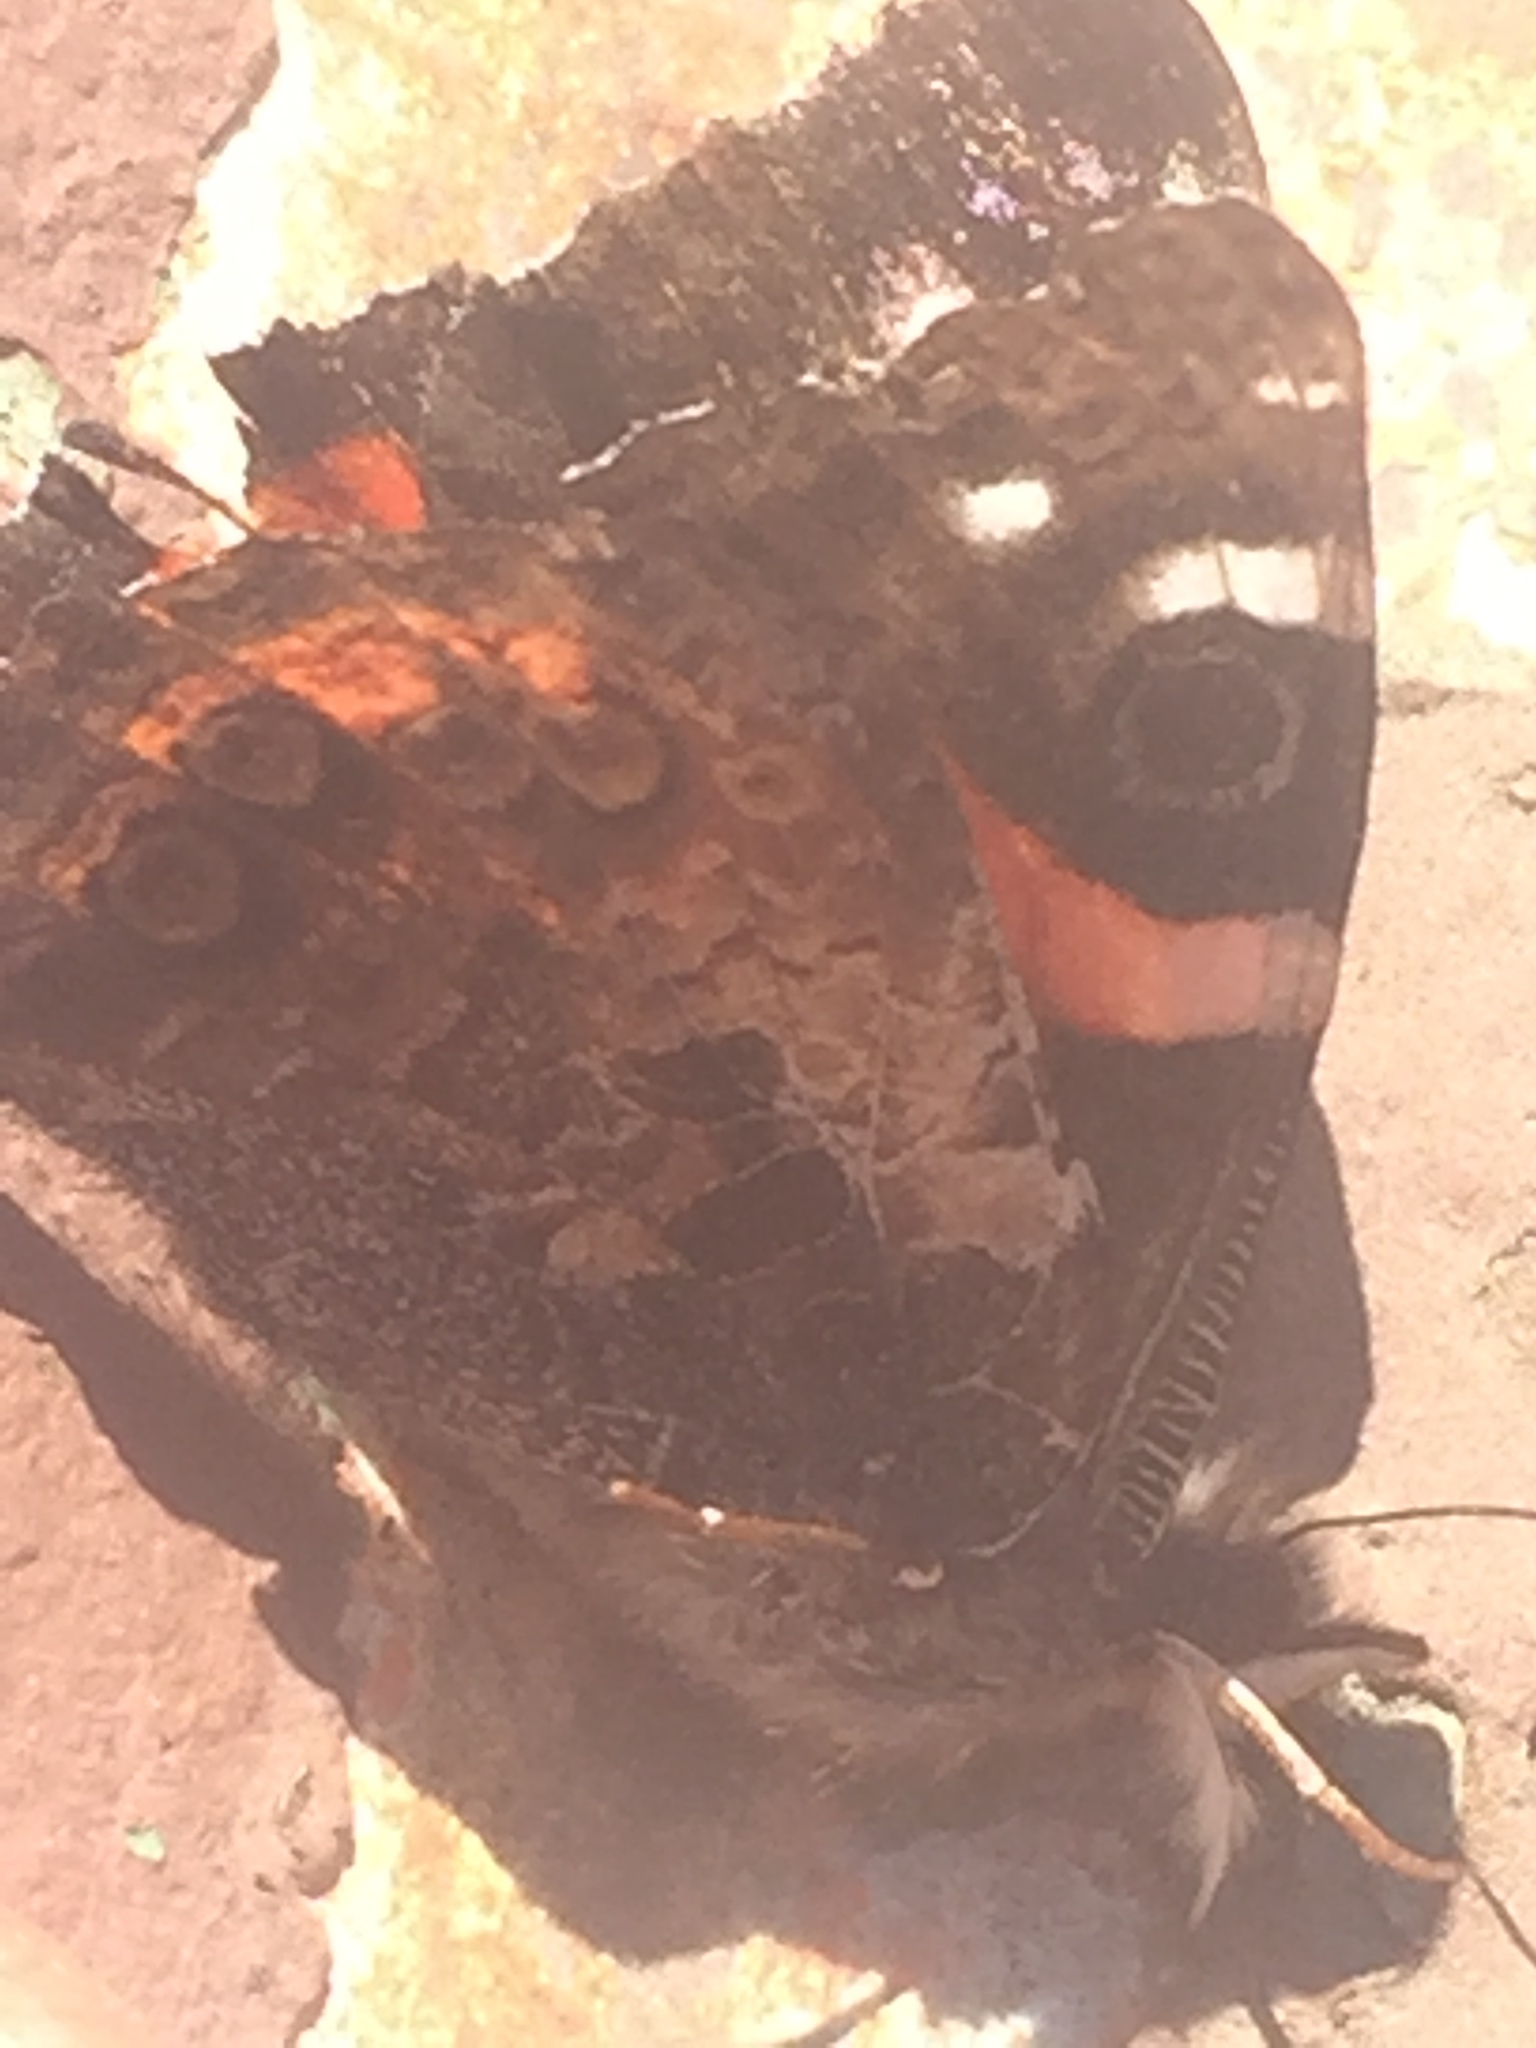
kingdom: Animalia
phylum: Arthropoda
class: Insecta
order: Lepidoptera
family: Nymphalidae
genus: Vanessa
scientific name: Vanessa gonerilla
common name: New zealand red admiral
